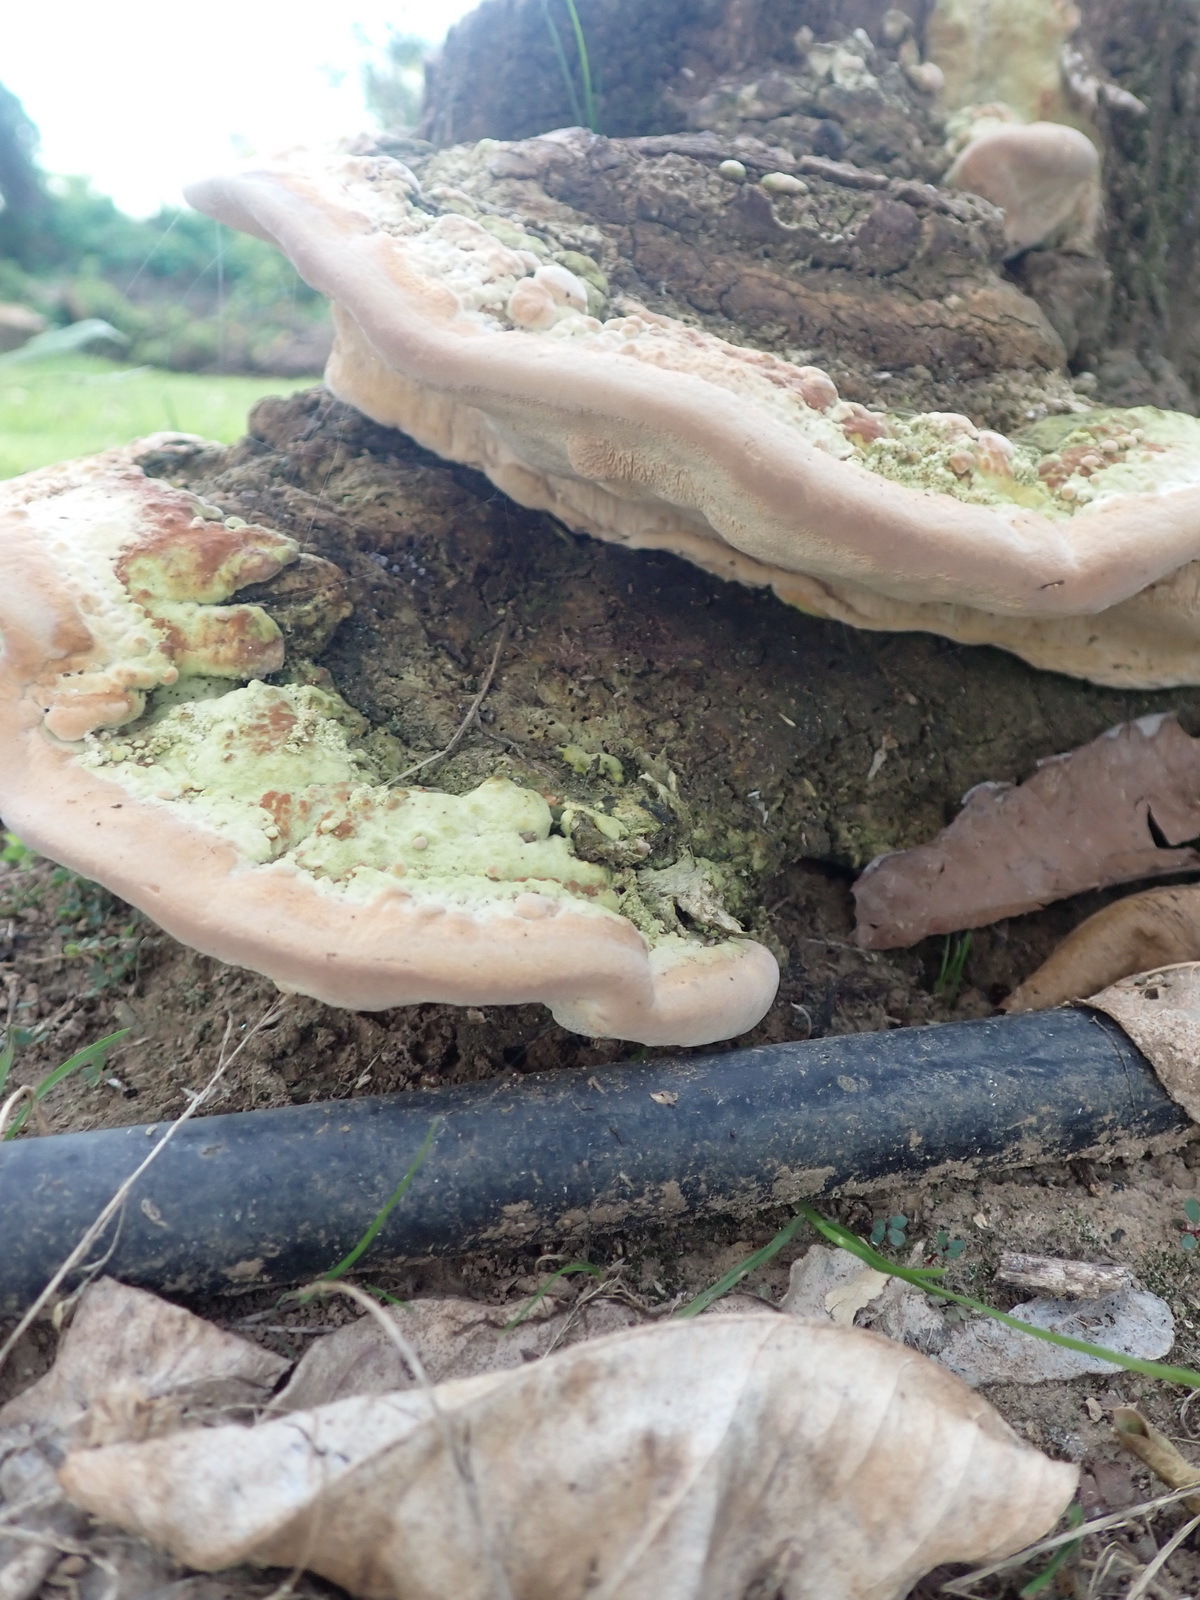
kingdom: Fungi
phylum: Basidiomycota
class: Agaricomycetes
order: Polyporales
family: Polyporaceae
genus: Trametes
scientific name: Trametes gibbosa
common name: Lumpy bracket
